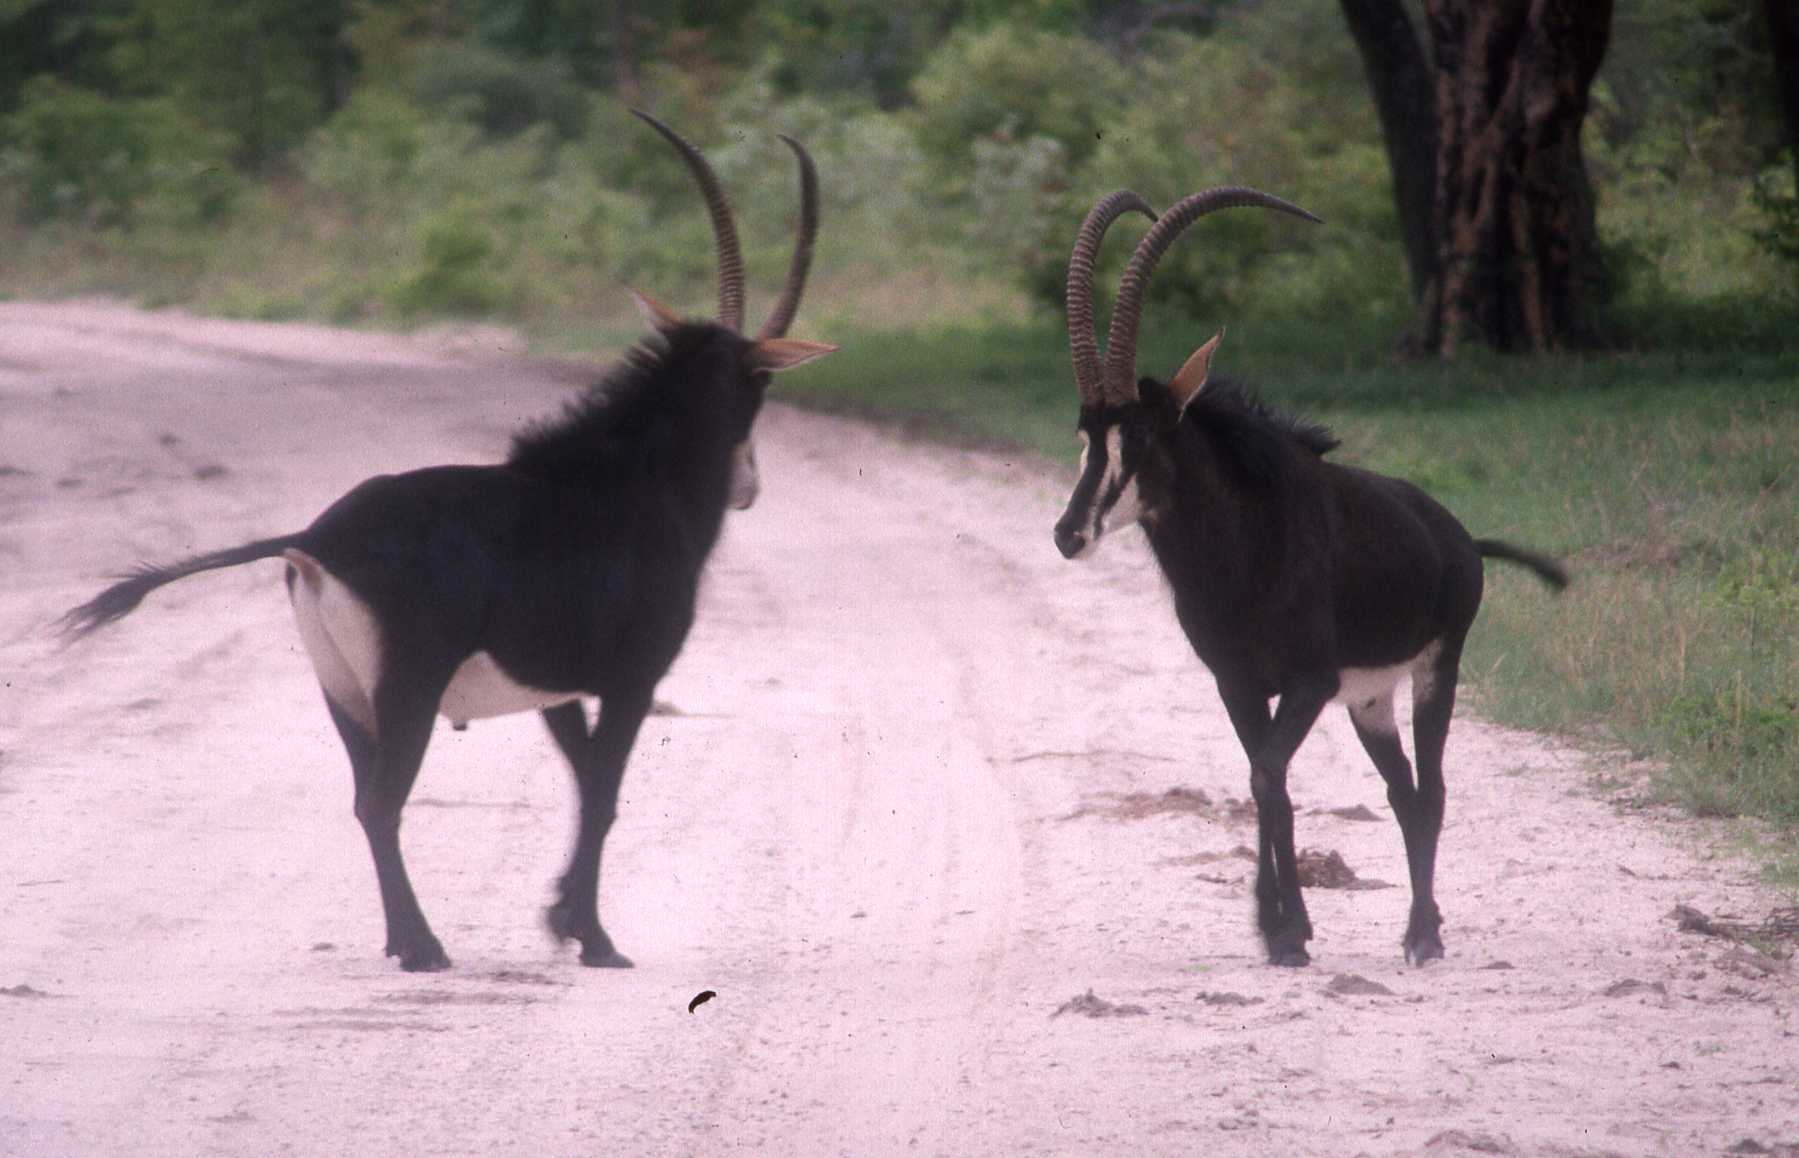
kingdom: Animalia
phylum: Chordata
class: Mammalia
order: Artiodactyla
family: Bovidae
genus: Hippotragus
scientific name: Hippotragus niger
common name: Sable antelope
